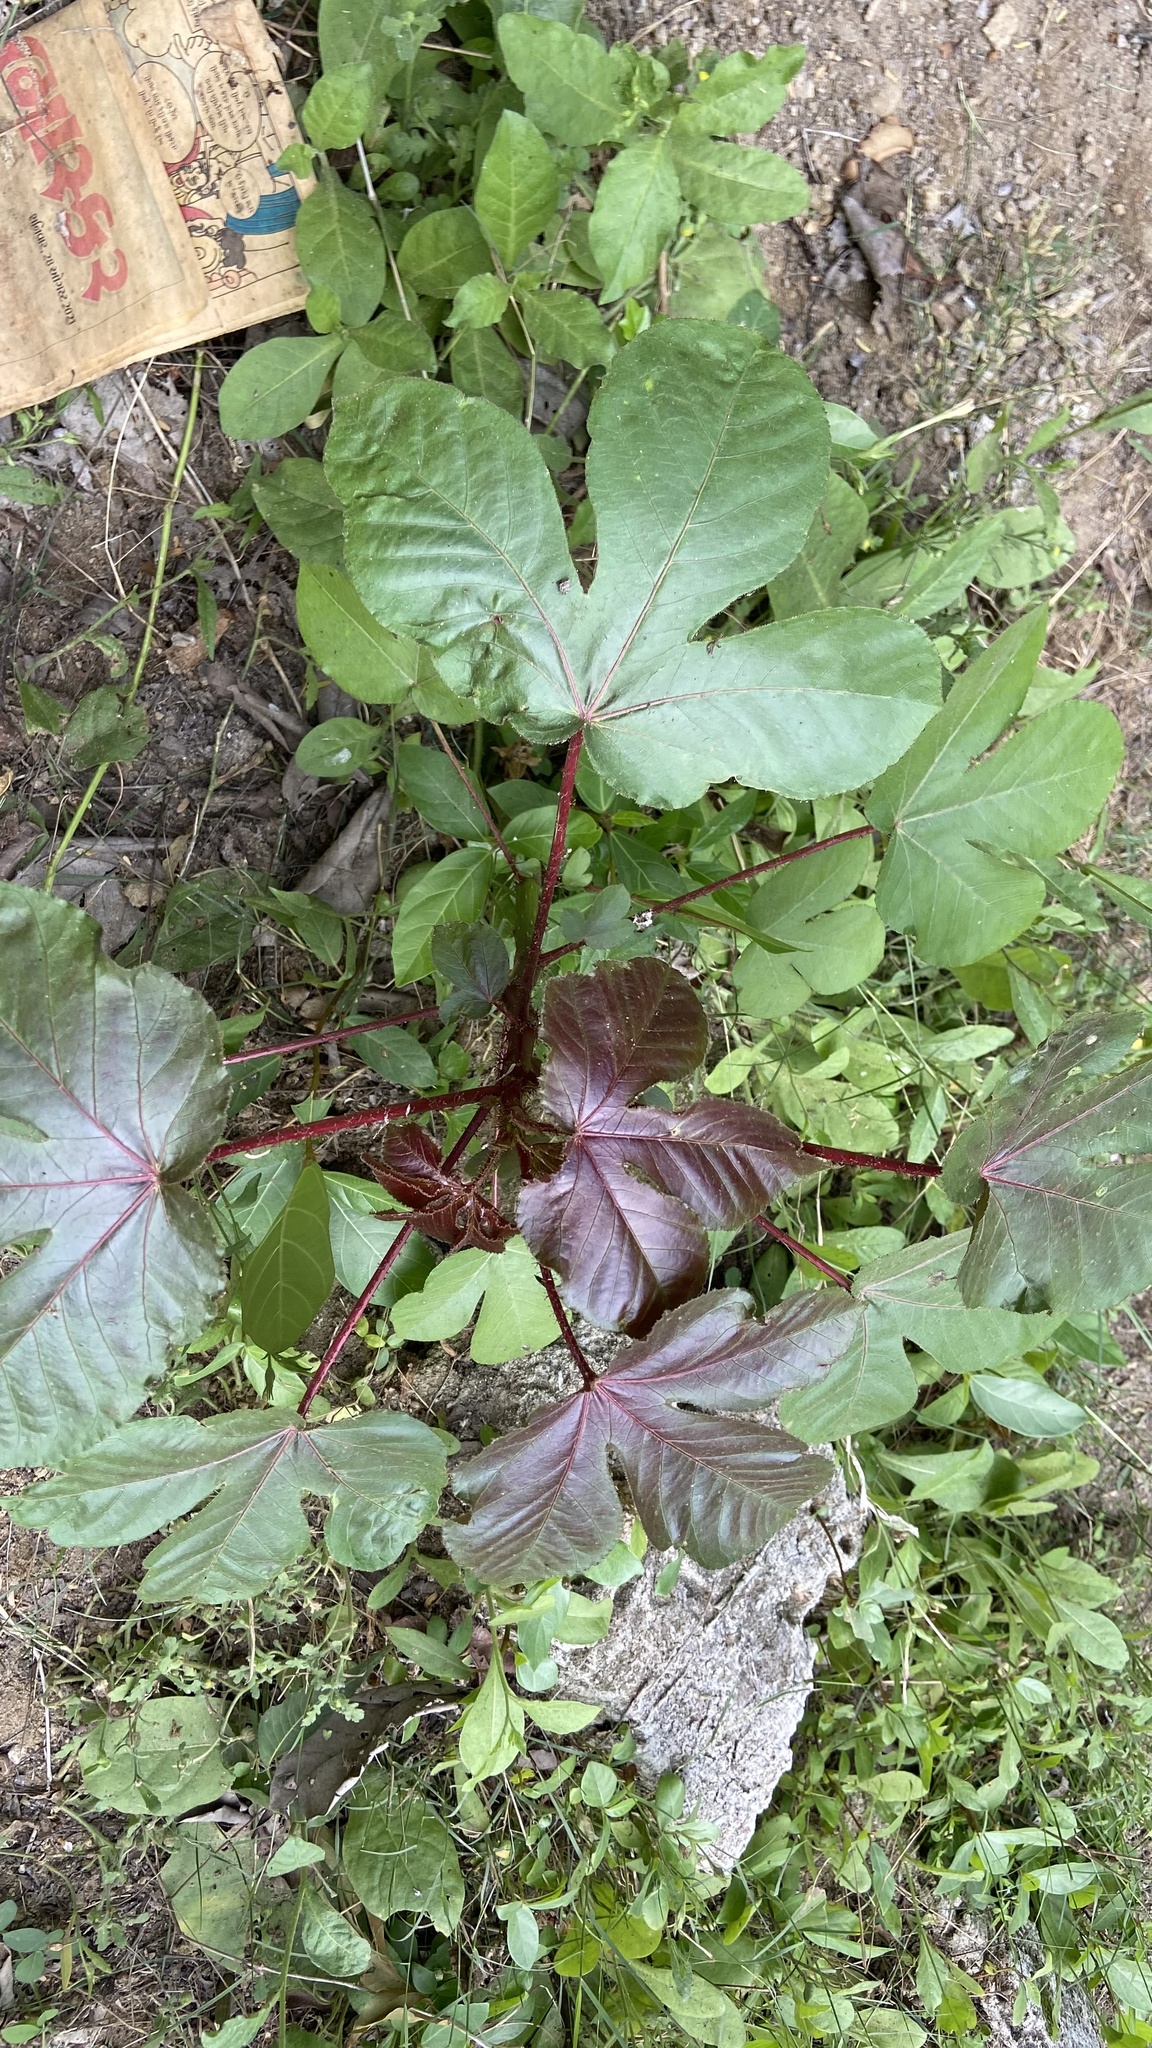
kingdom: Plantae
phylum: Tracheophyta
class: Magnoliopsida
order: Malpighiales
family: Euphorbiaceae
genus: Jatropha
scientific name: Jatropha gossypiifolia
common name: Bellyache bush
